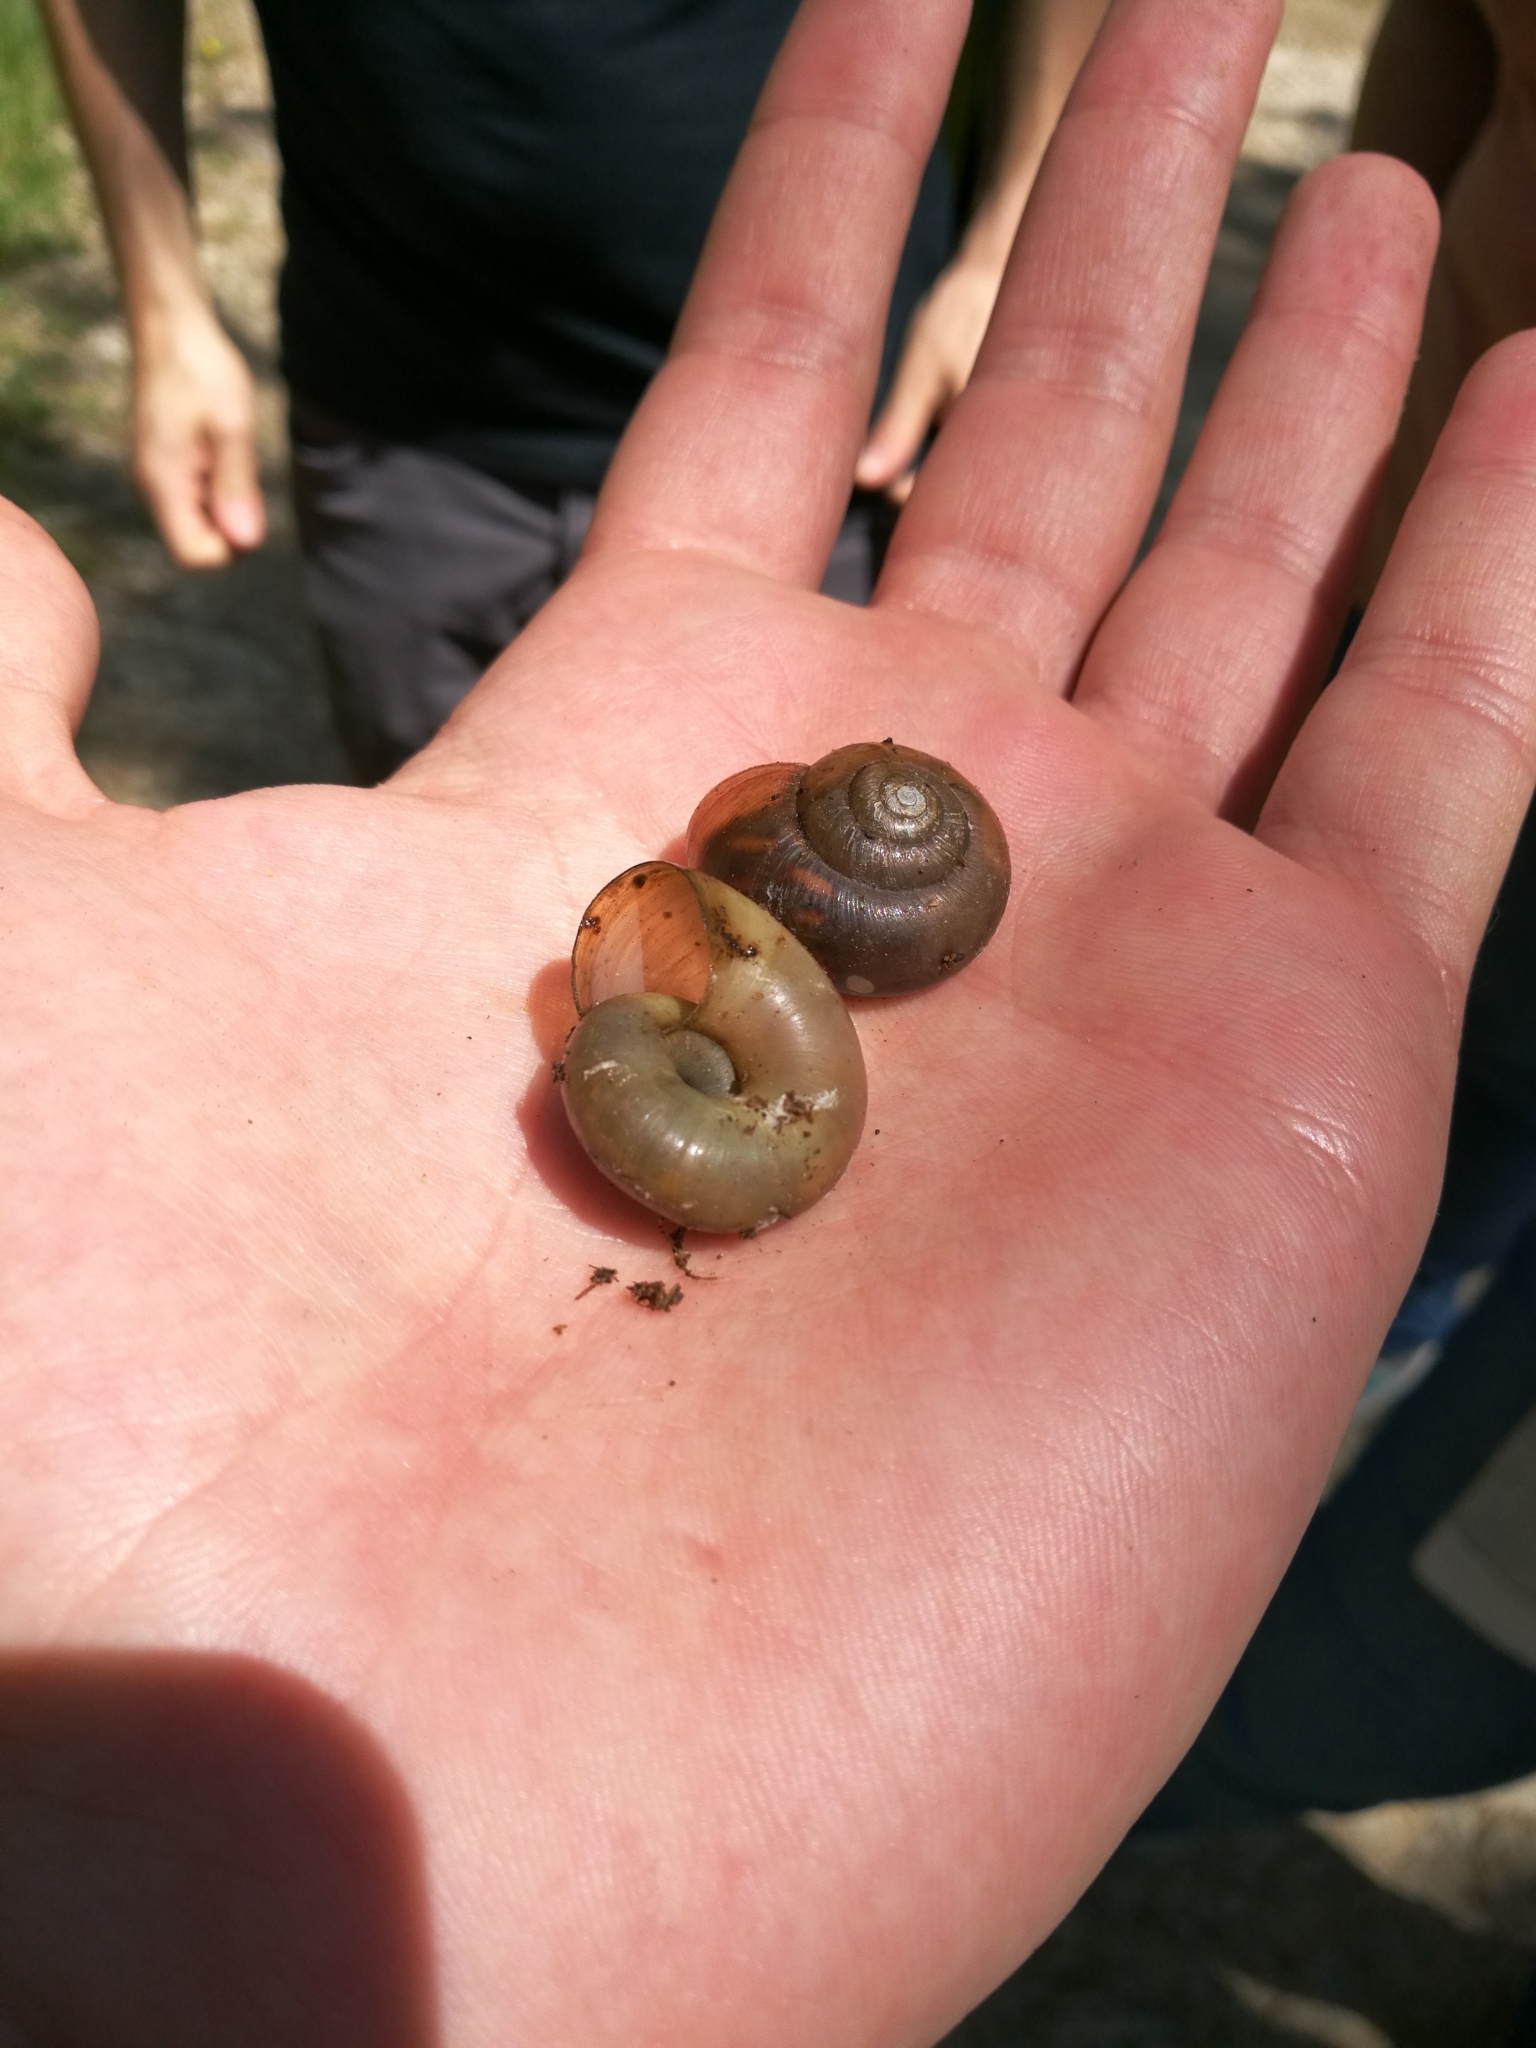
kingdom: Animalia
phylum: Mollusca
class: Gastropoda
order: Stylommatophora
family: Gastrodontidae
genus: Retinella
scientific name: Retinella olivetorum
